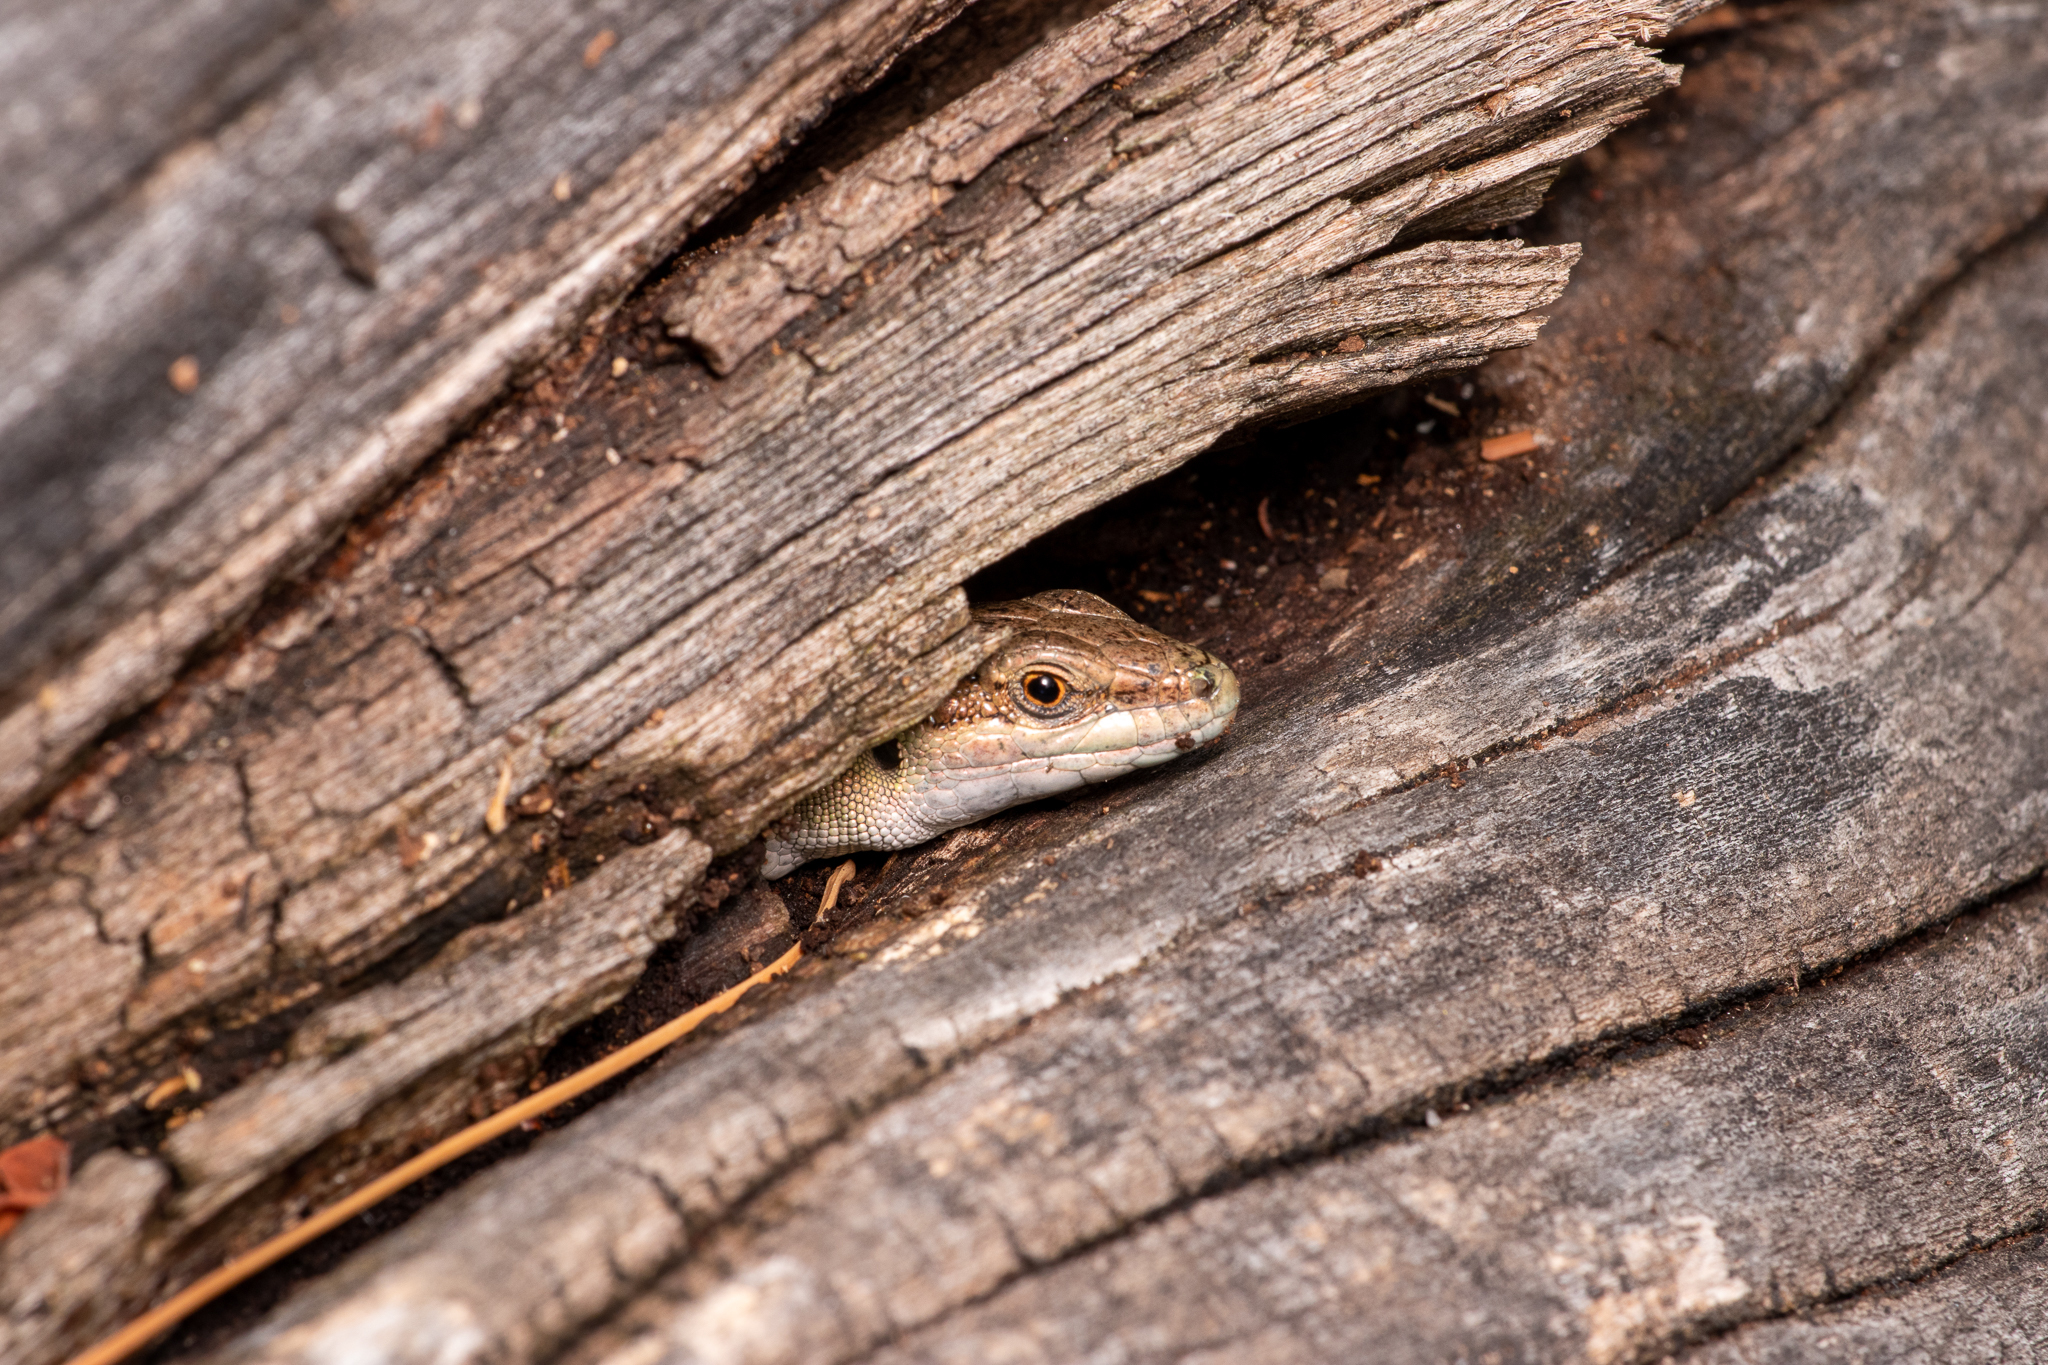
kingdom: Animalia
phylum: Chordata
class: Squamata
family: Lacertidae
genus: Podarcis
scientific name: Podarcis siculus
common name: Italian wall lizard
